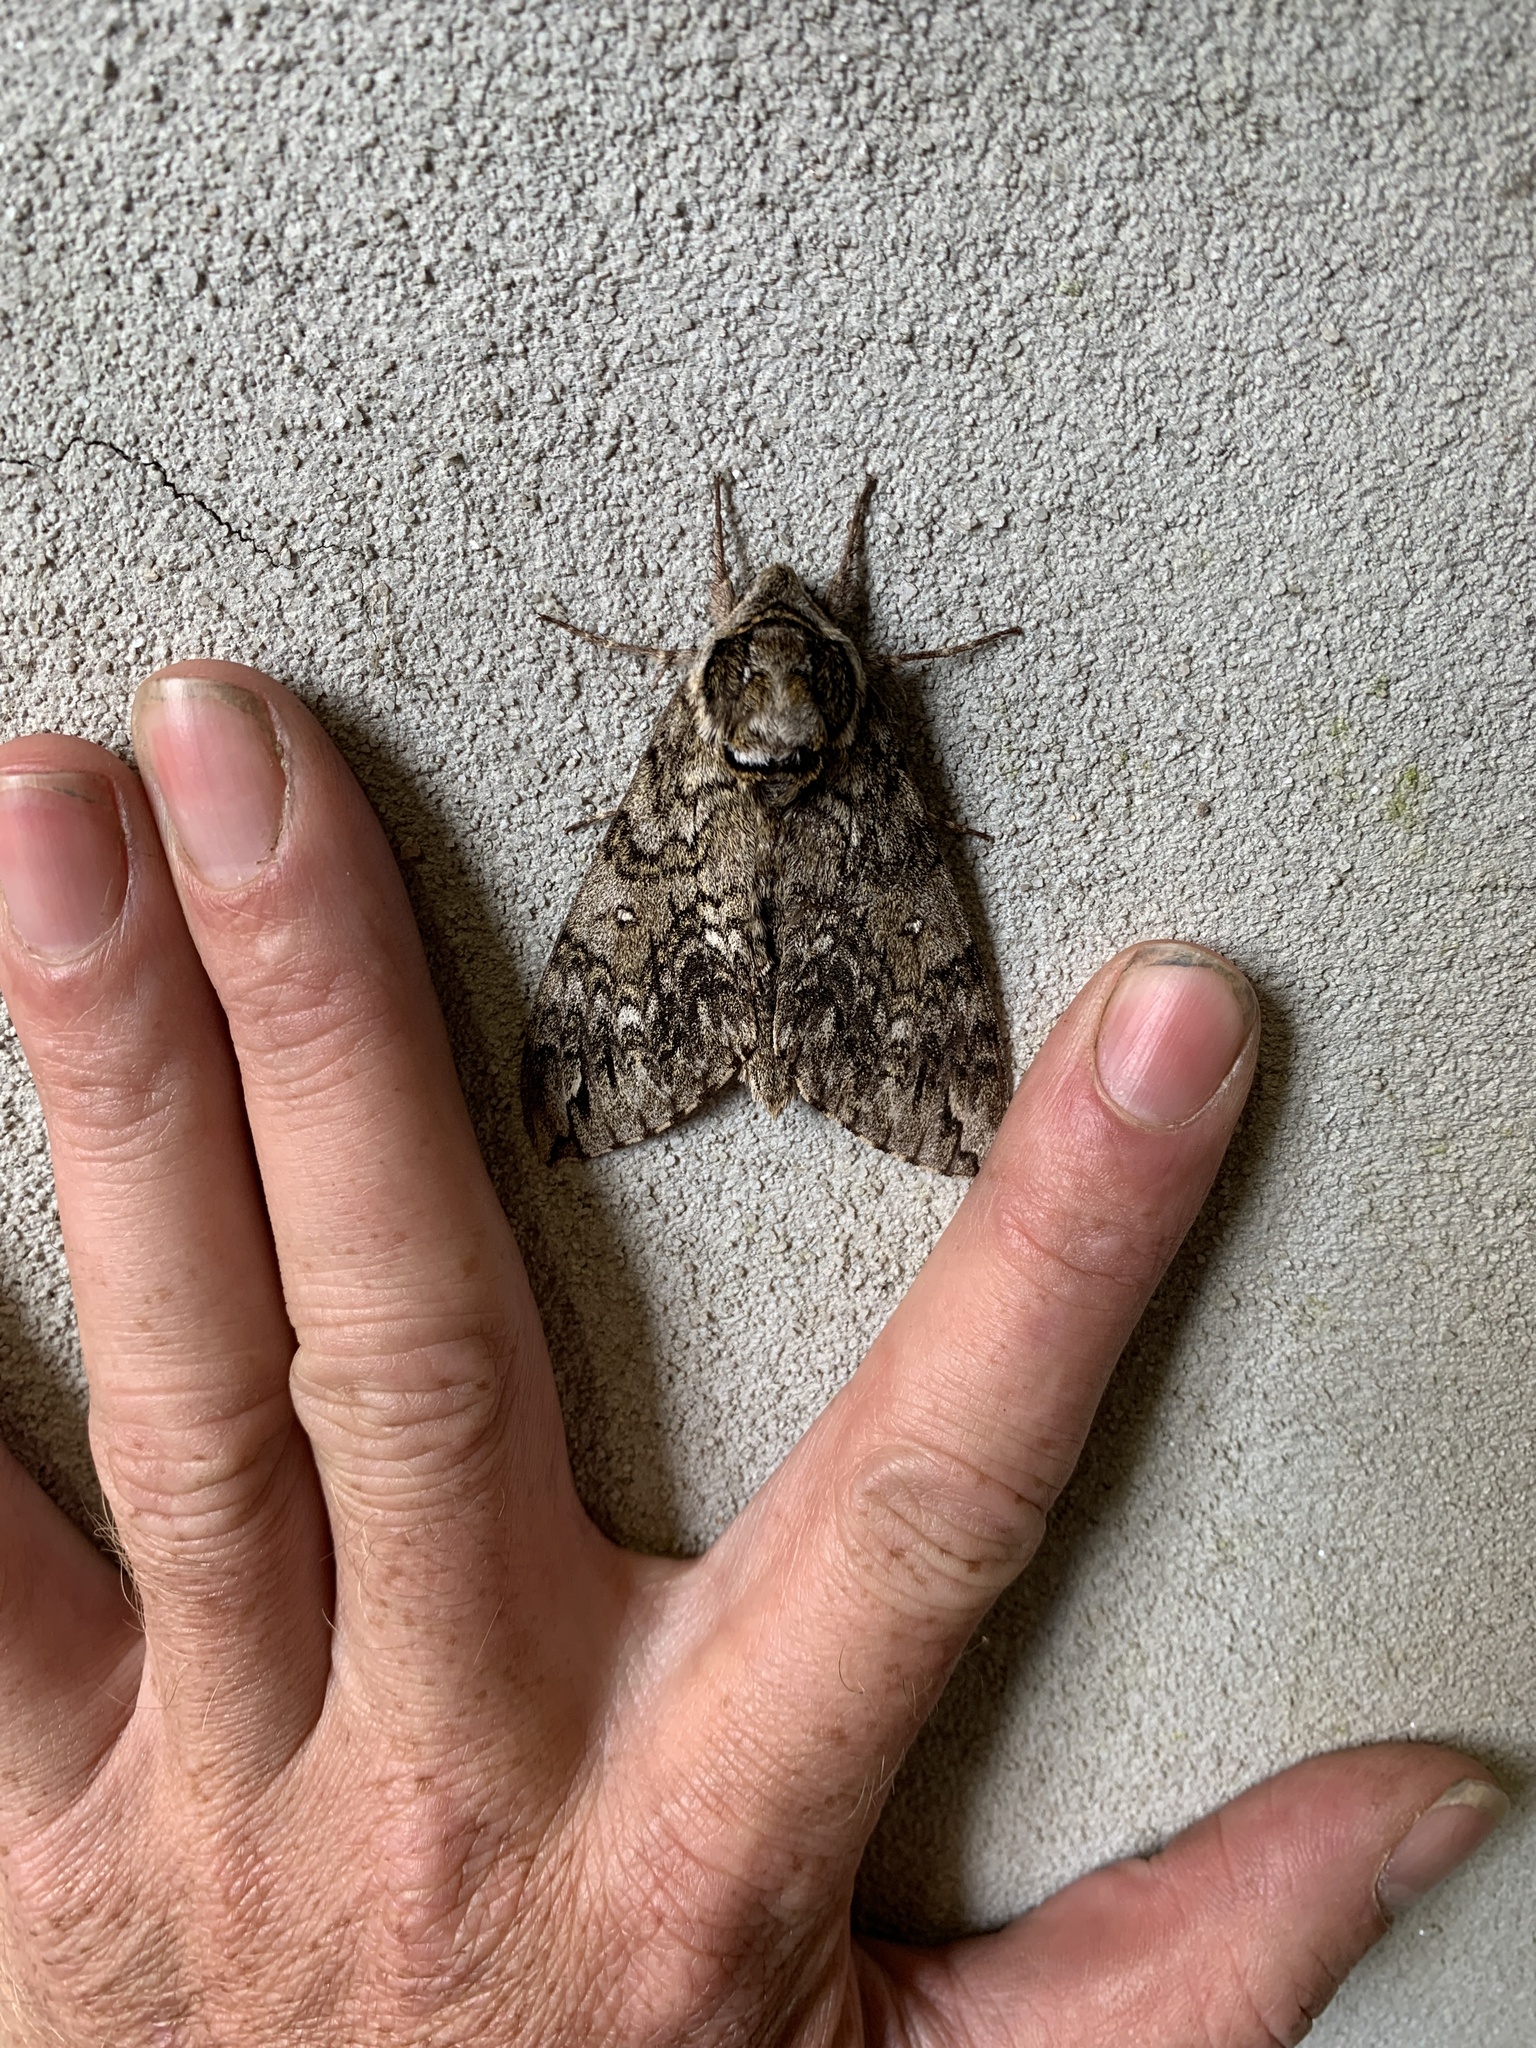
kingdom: Animalia
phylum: Arthropoda
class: Insecta
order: Lepidoptera
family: Sphingidae
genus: Ceratomia
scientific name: Ceratomia undulosa
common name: Waved sphinx
